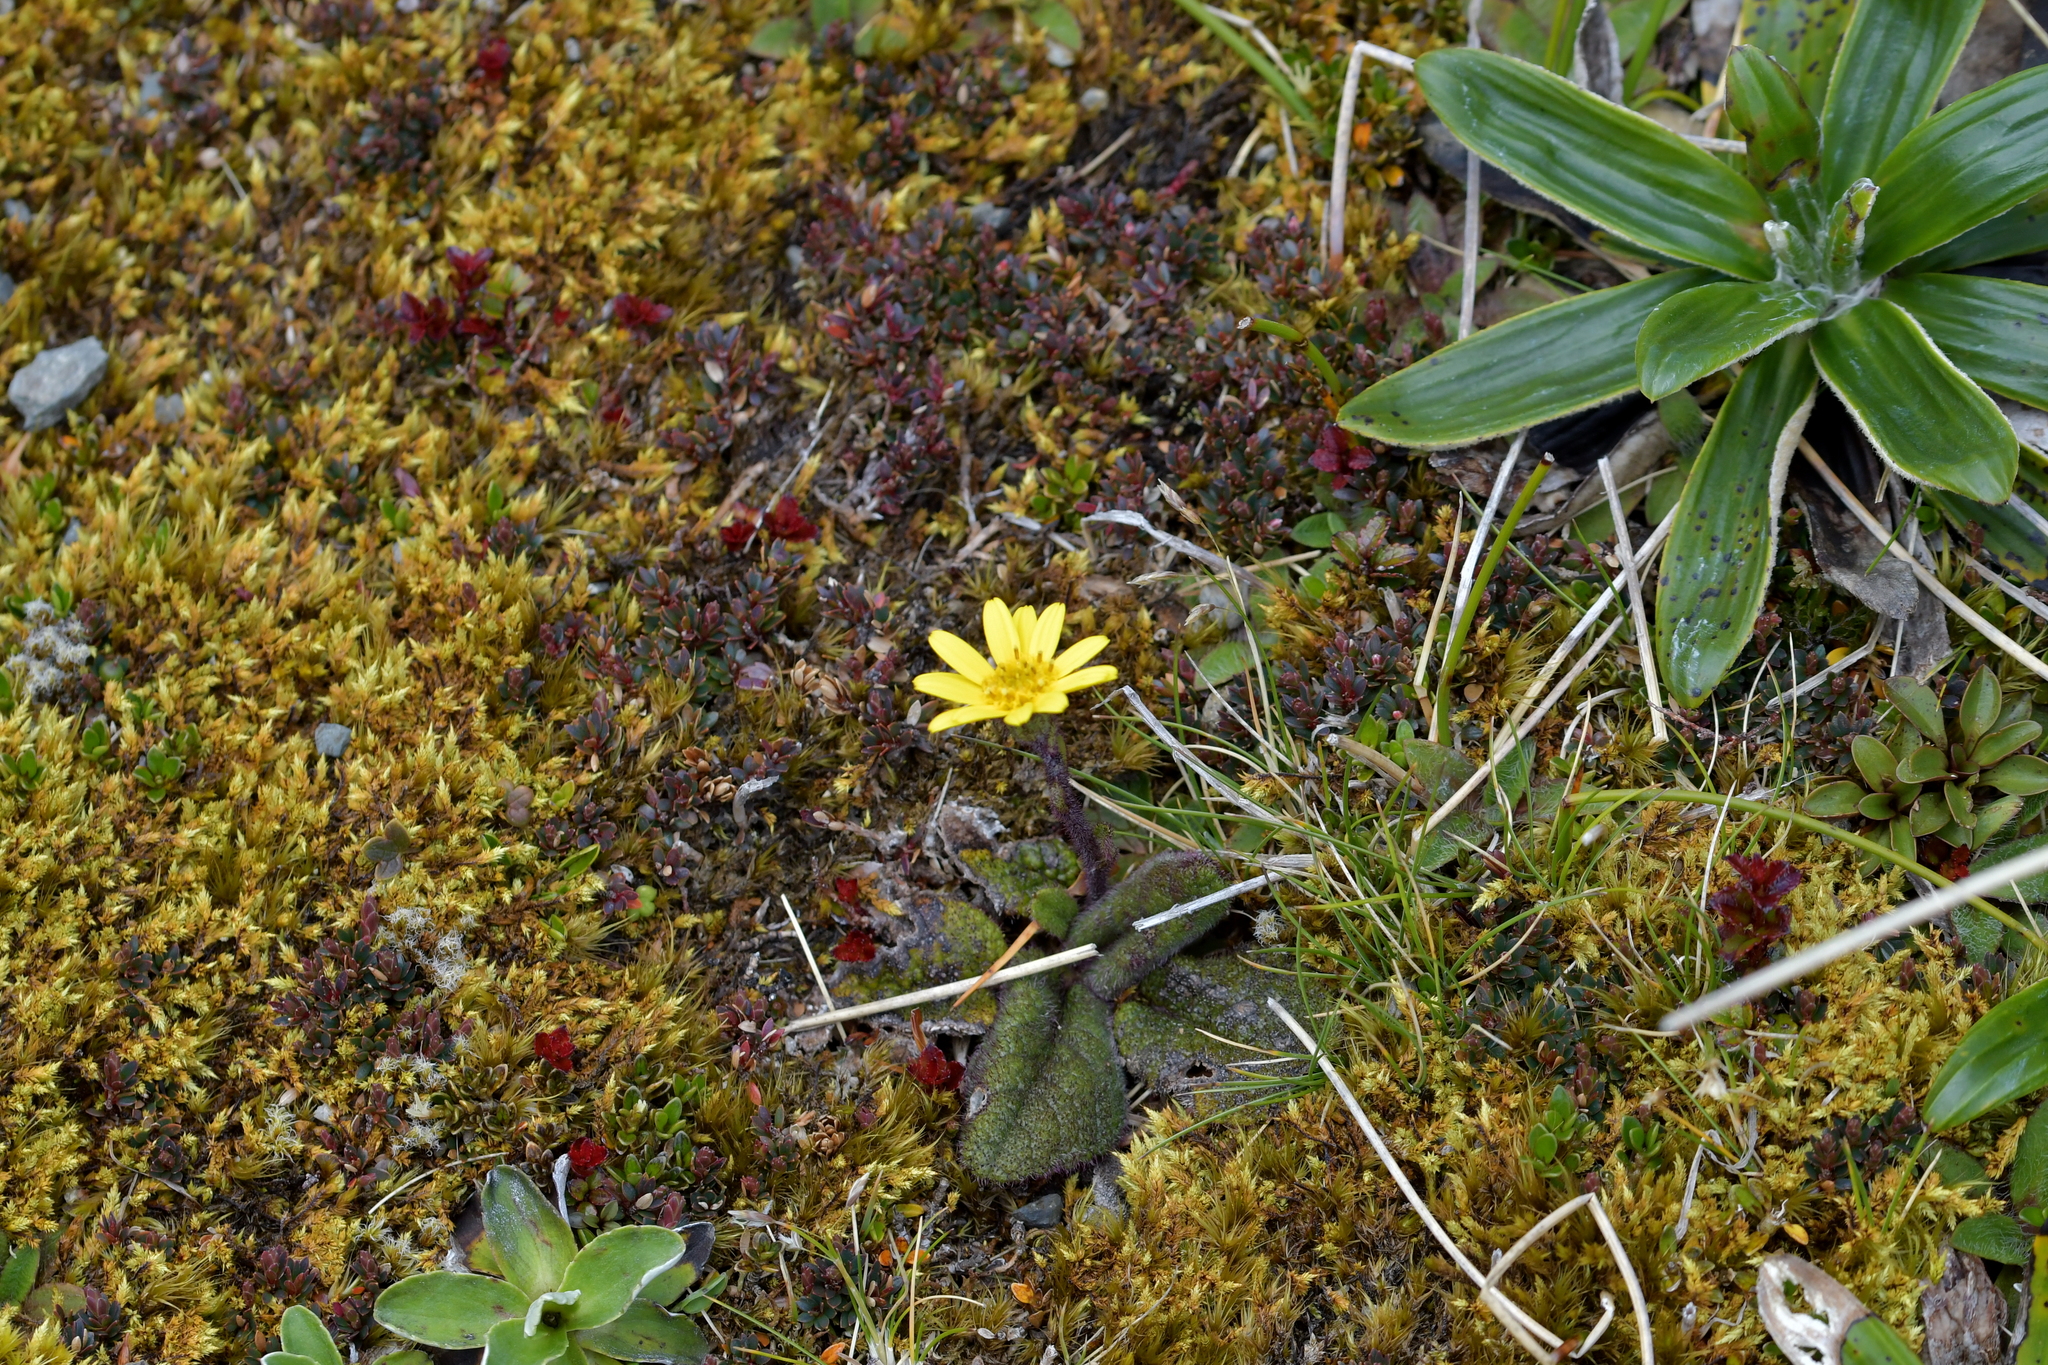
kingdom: Plantae
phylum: Tracheophyta
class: Magnoliopsida
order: Asterales
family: Asteraceae
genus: Brachyglottis
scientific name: Brachyglottis lagopus
